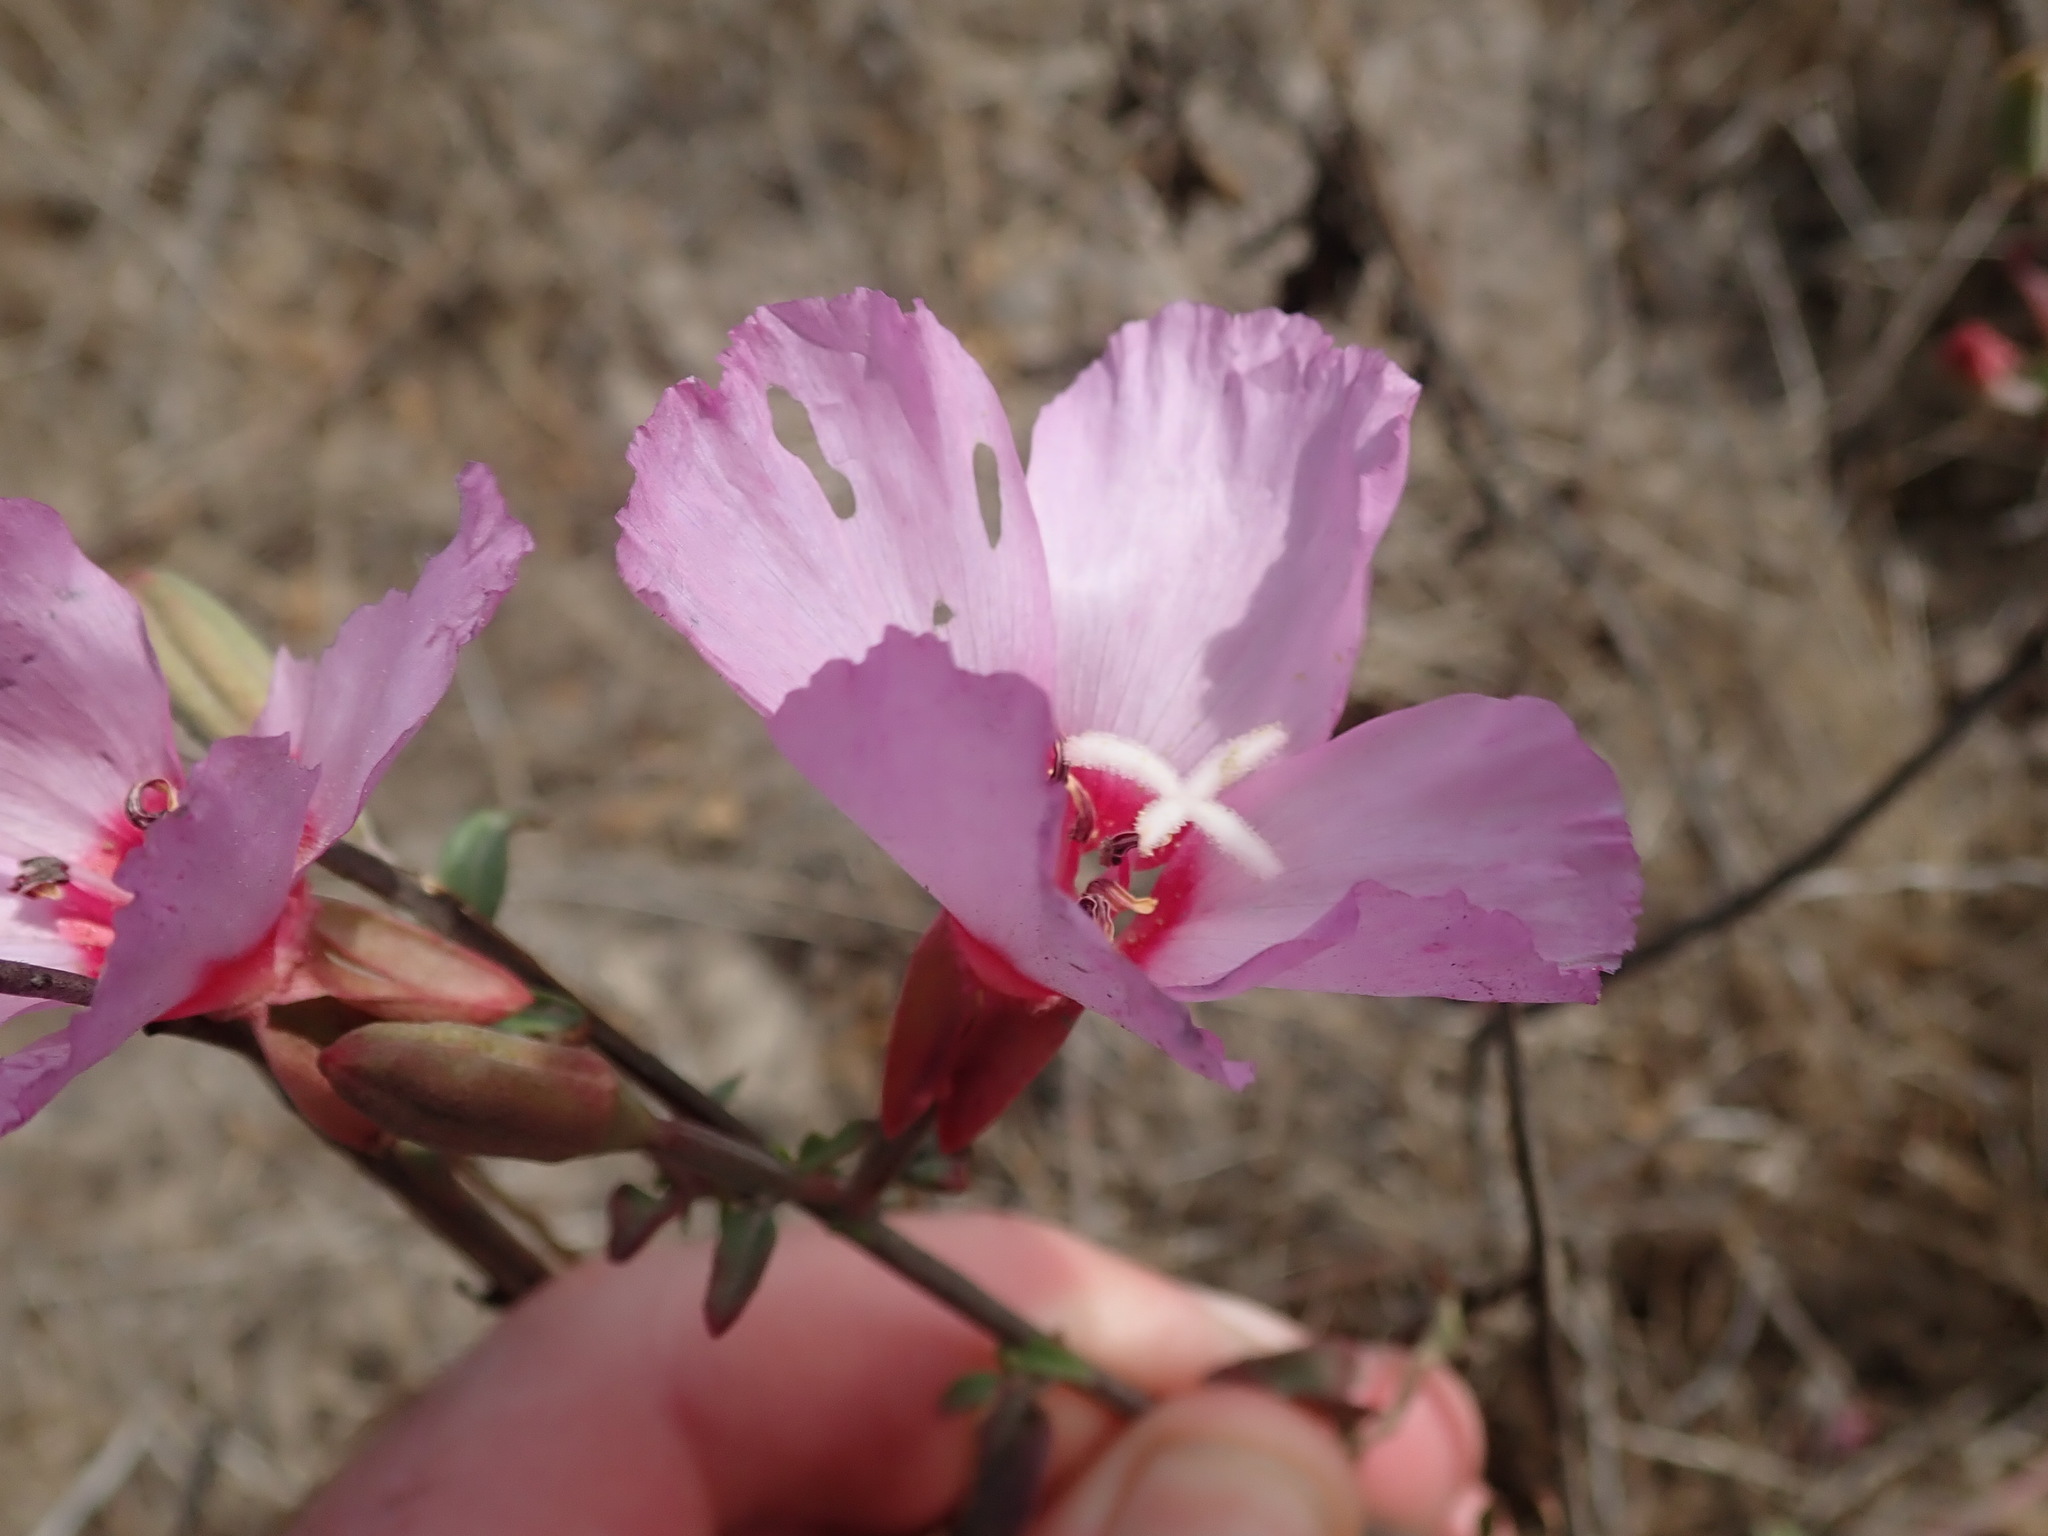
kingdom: Plantae
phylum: Tracheophyta
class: Magnoliopsida
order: Myrtales
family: Onagraceae
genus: Clarkia
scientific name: Clarkia rubicunda
